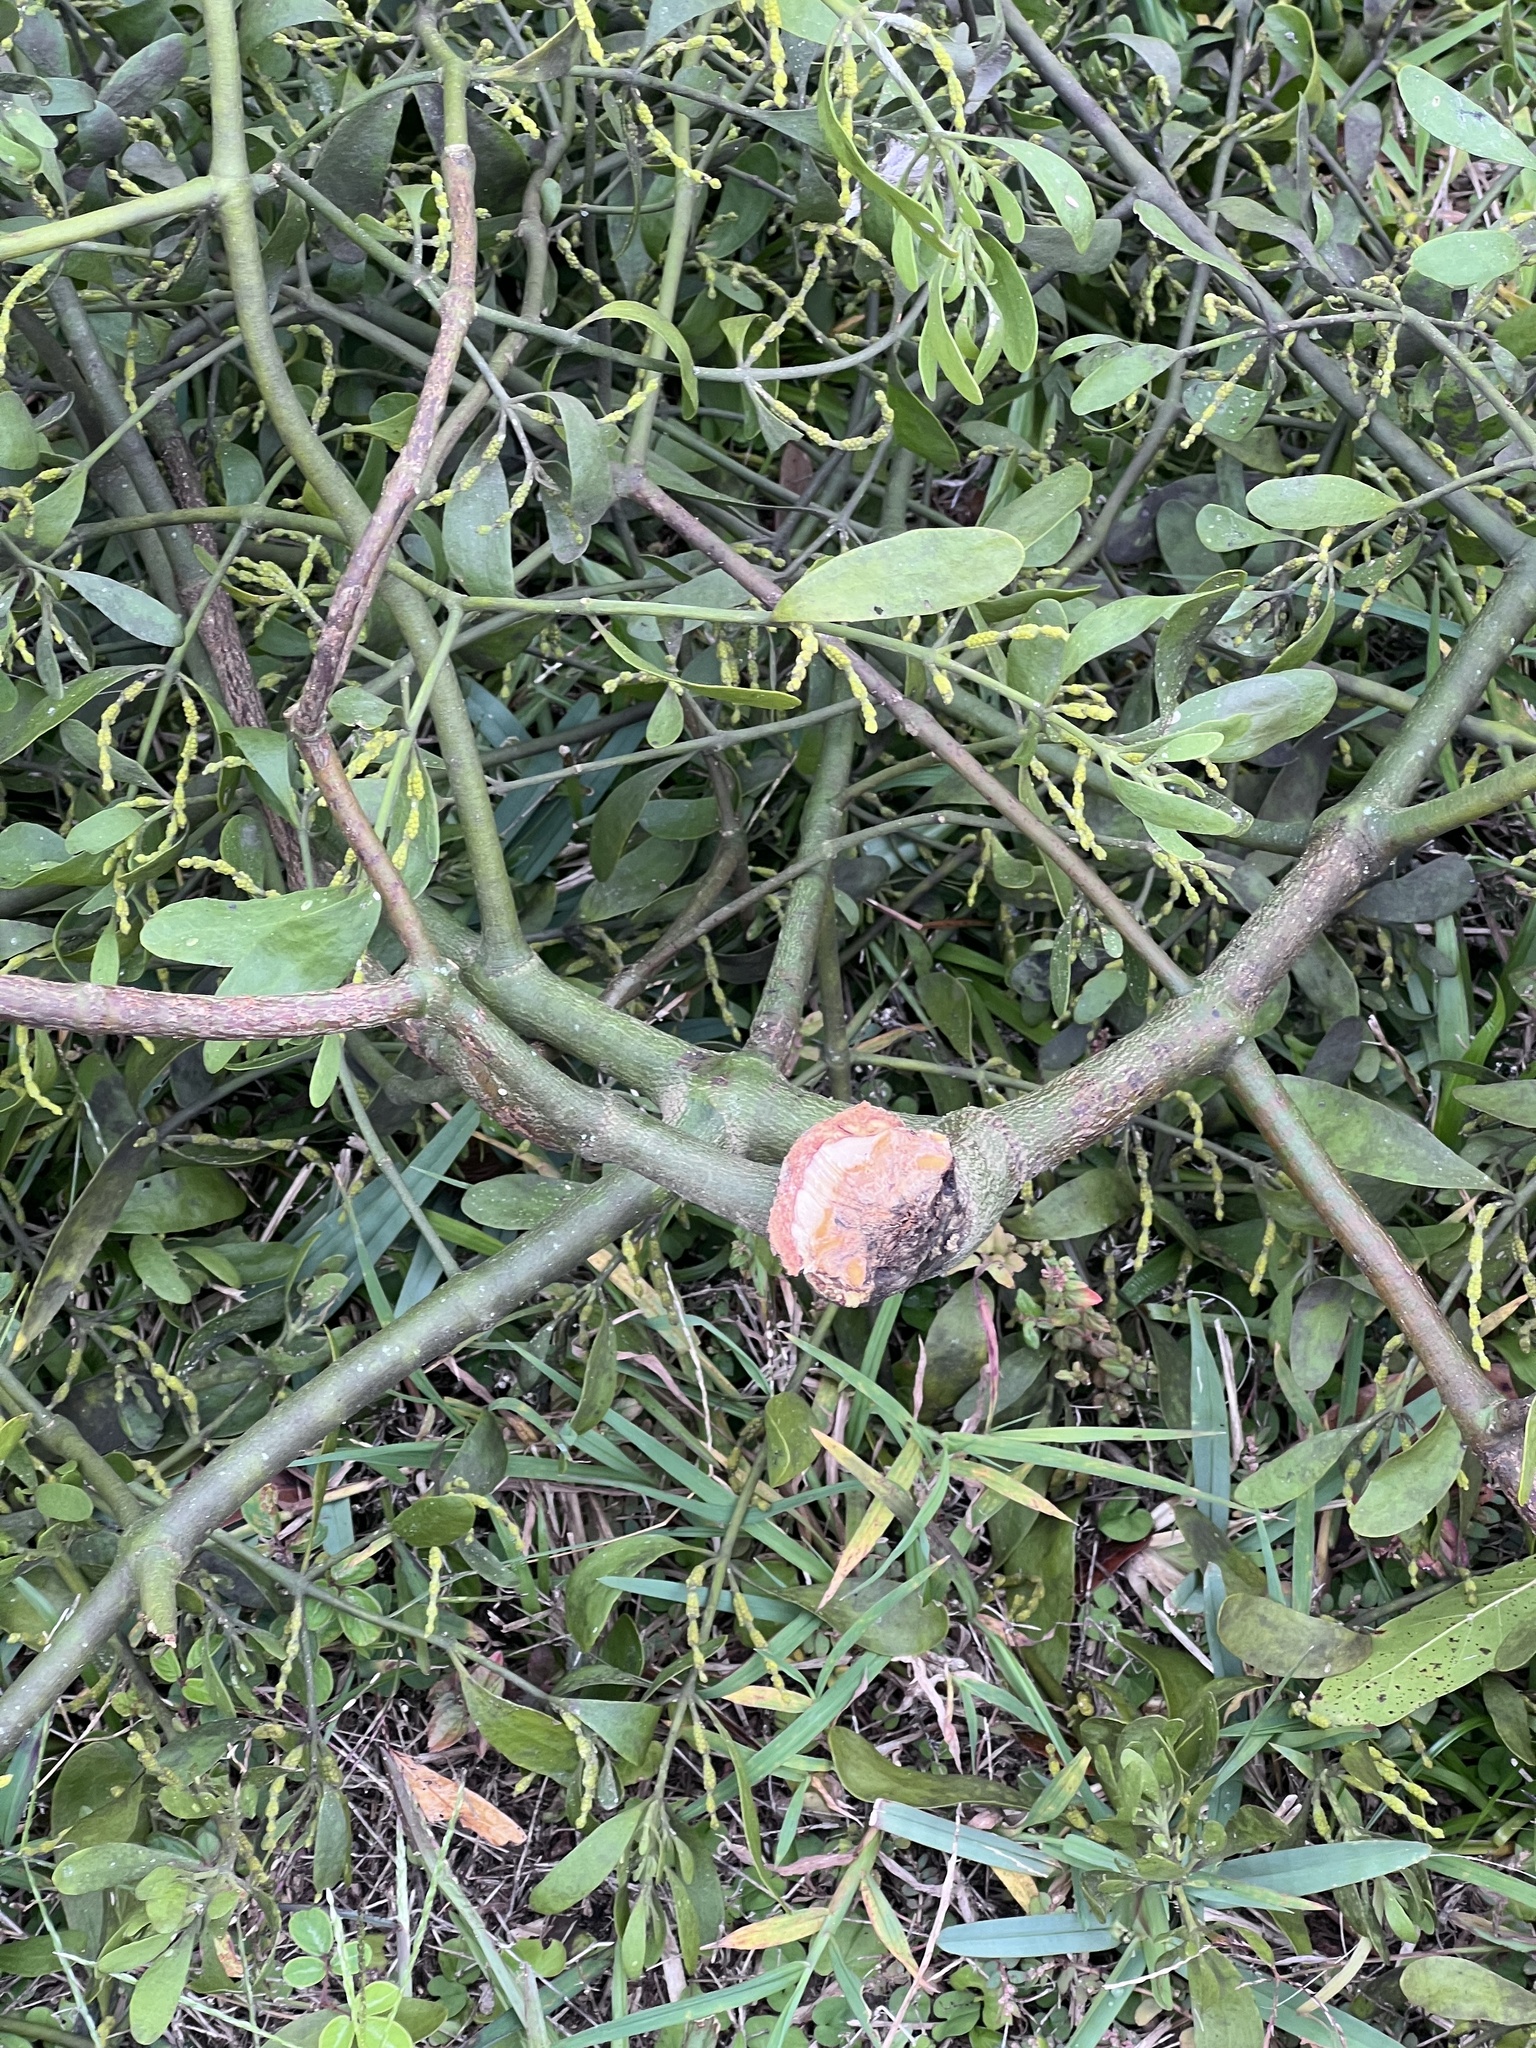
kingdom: Plantae
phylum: Tracheophyta
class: Magnoliopsida
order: Santalales
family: Viscaceae
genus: Phoradendron
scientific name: Phoradendron leucarpum
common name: Pacific mistletoe
